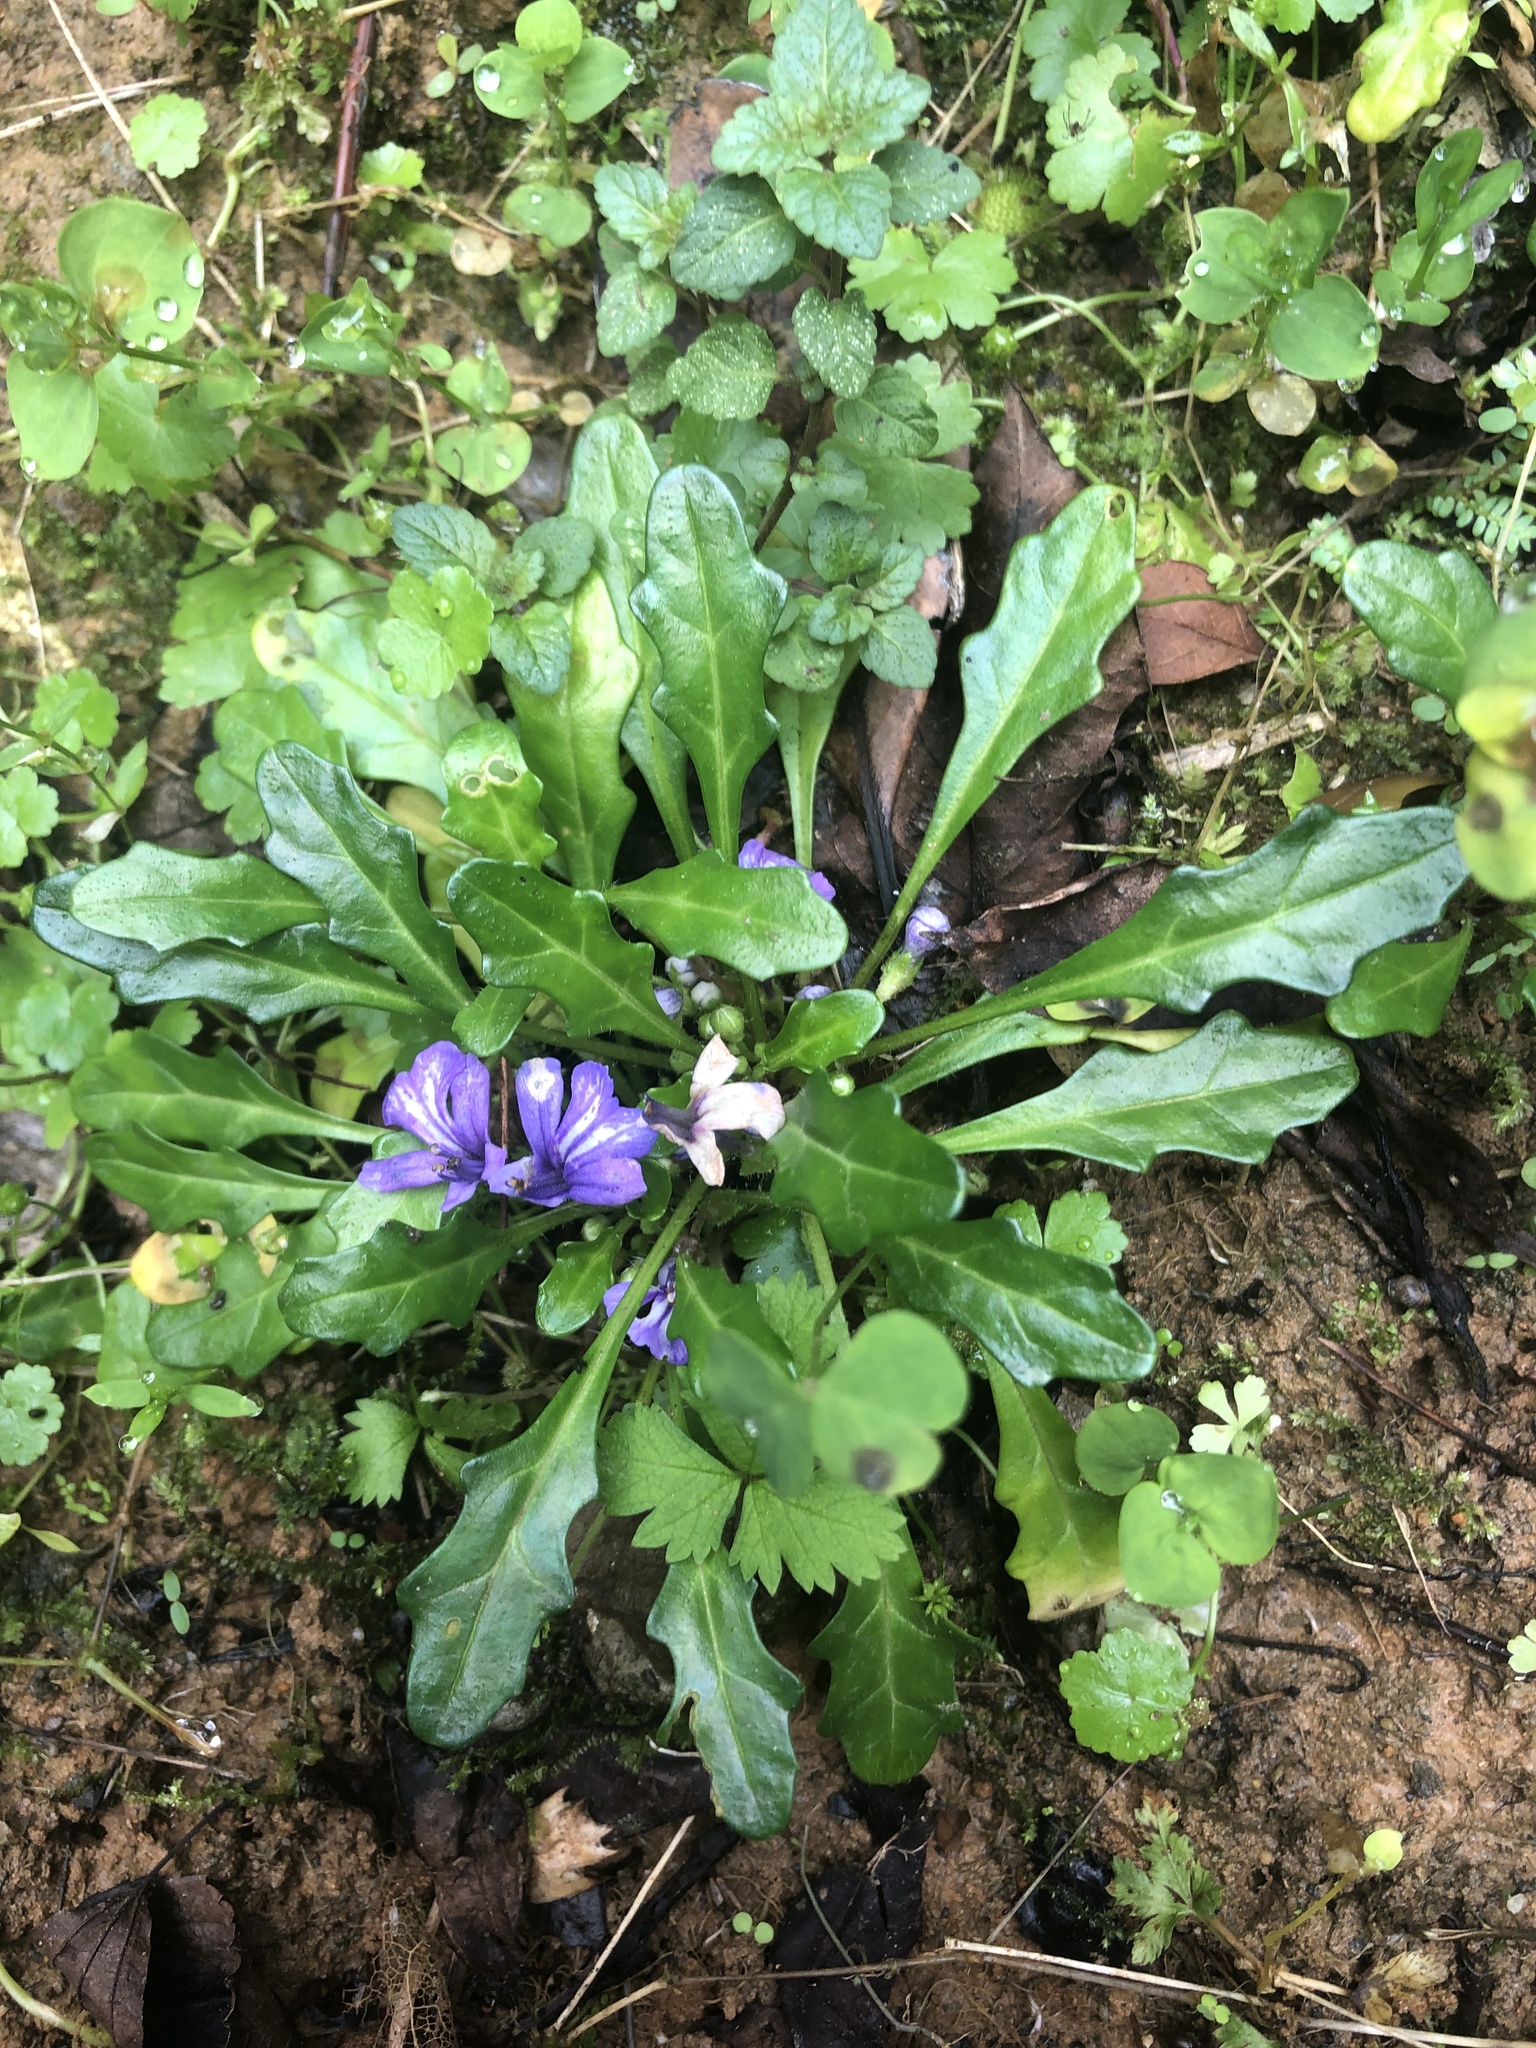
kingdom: Plantae
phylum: Tracheophyta
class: Magnoliopsida
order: Lamiales
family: Lamiaceae
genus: Ajuga
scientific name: Ajuga decumbens
